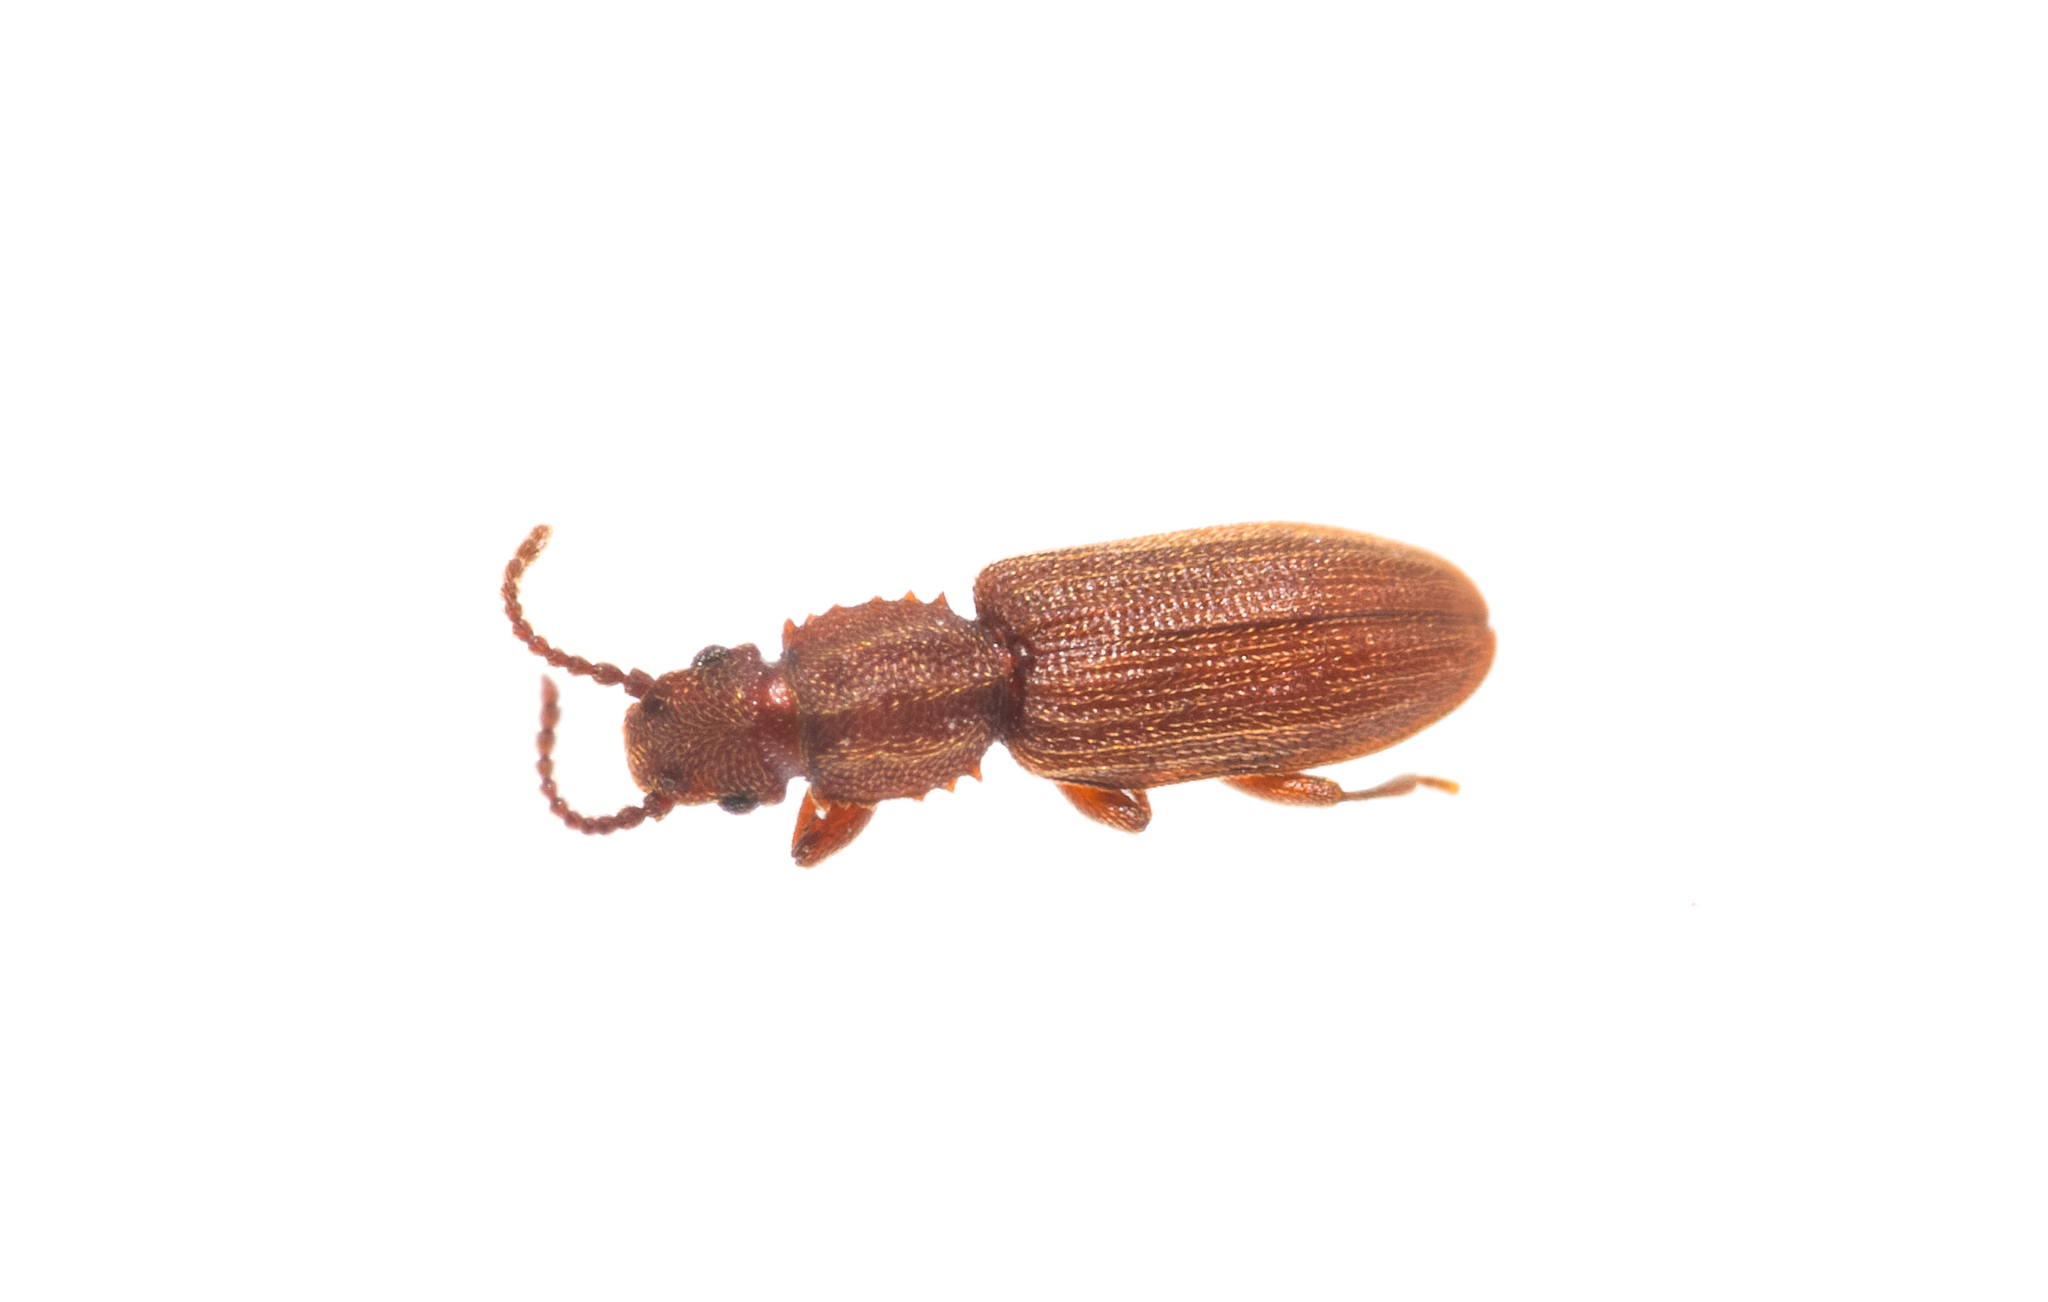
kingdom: Animalia
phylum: Arthropoda
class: Insecta
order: Coleoptera
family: Silvanidae
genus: Oryzaephilus
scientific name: Oryzaephilus surinamensis
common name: Sawtoothed grain beetle
